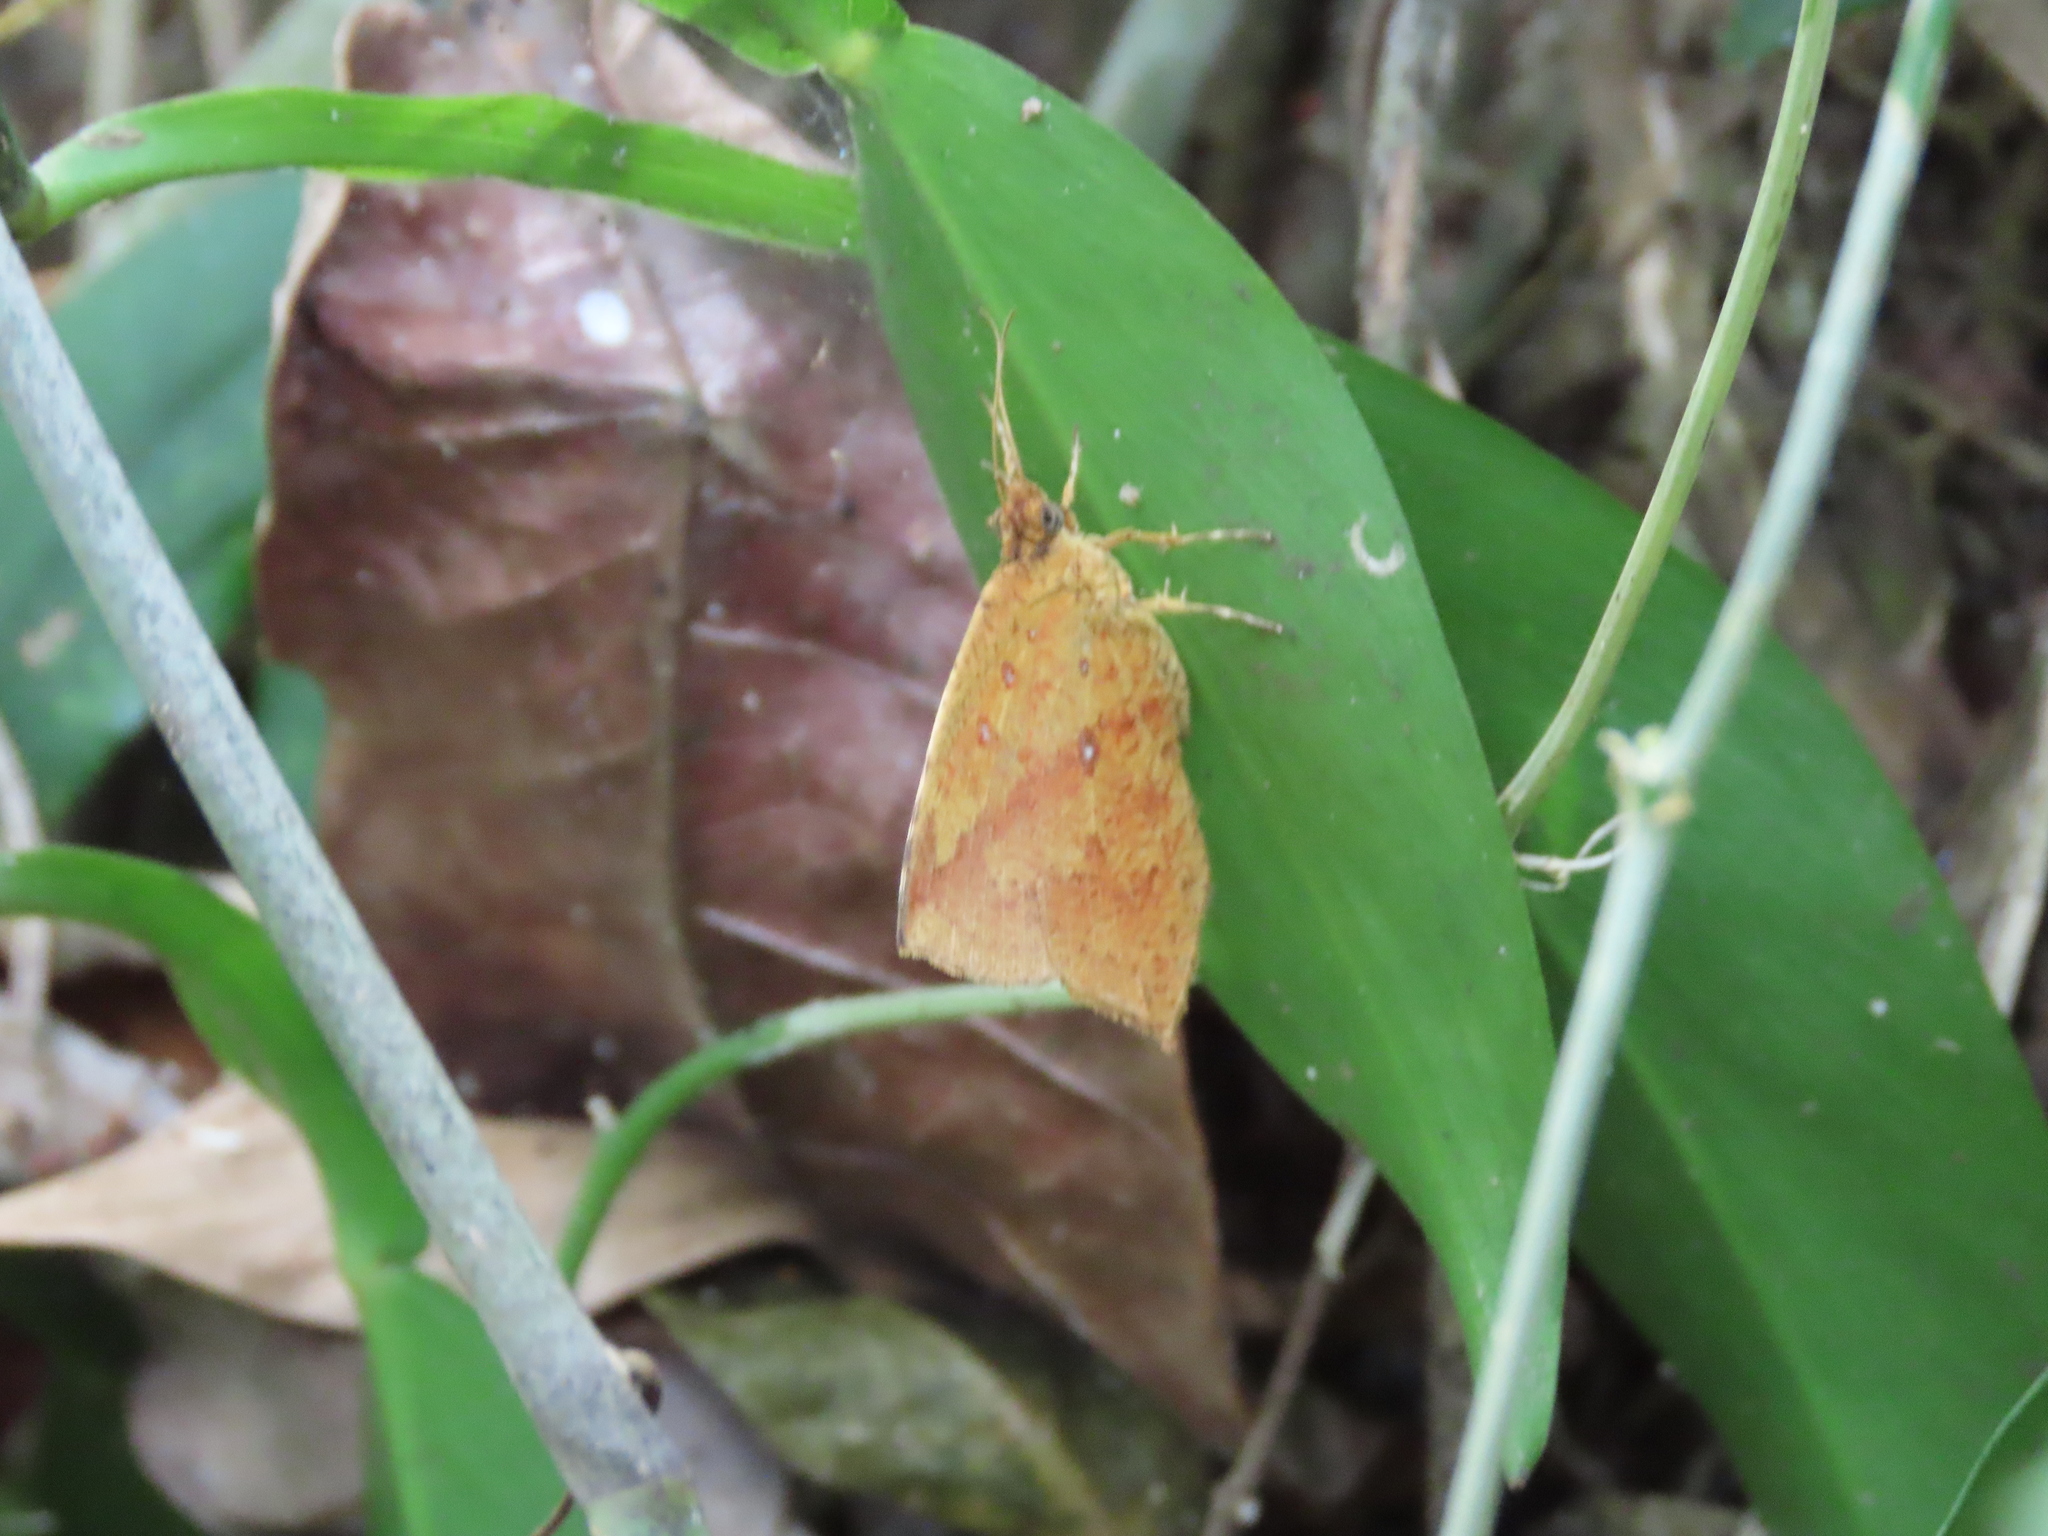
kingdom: Animalia
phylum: Arthropoda
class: Insecta
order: Lepidoptera
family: Callidulidae
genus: Tetragonus
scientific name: Tetragonus catamitus
